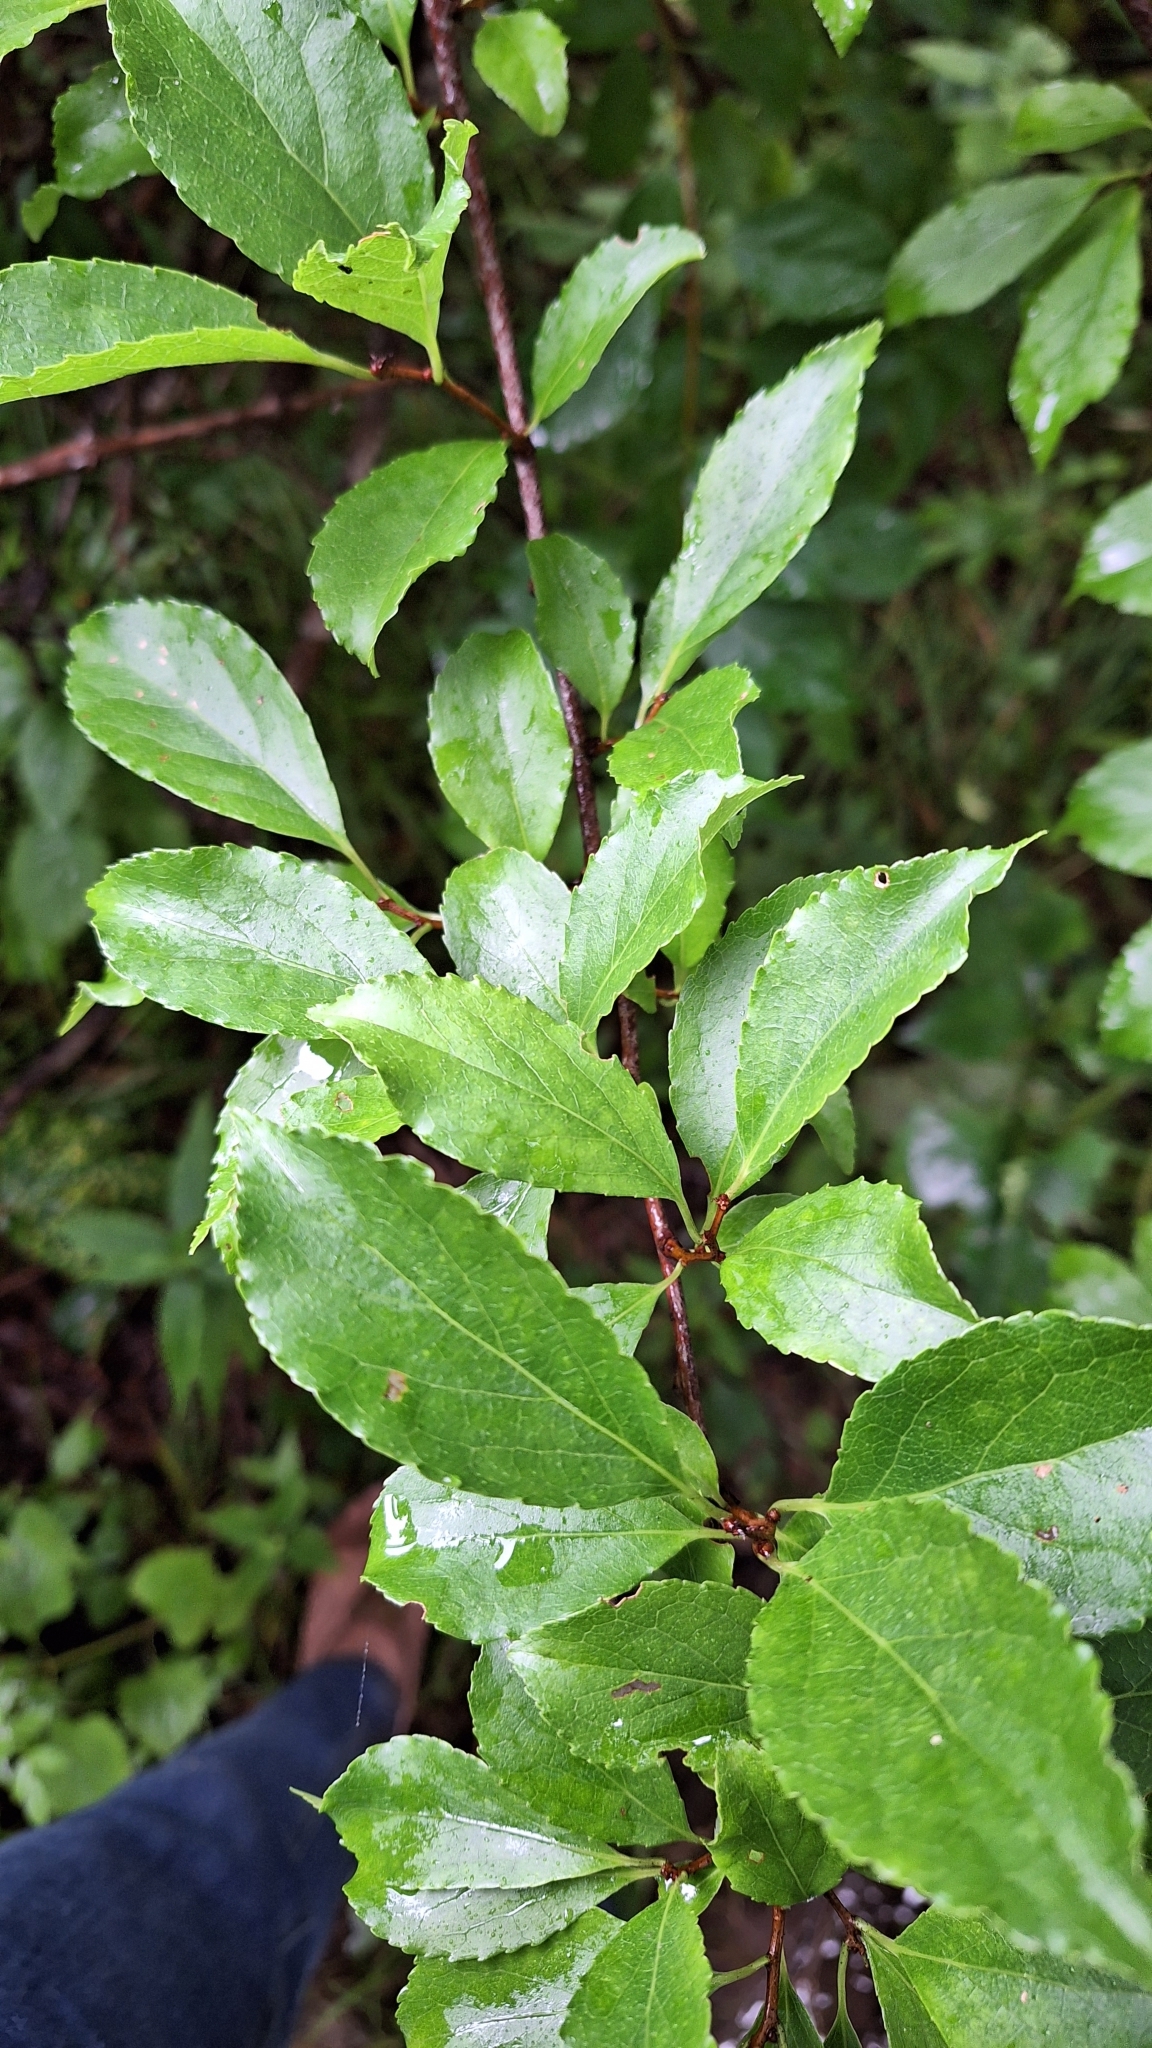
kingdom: Plantae
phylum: Tracheophyta
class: Magnoliopsida
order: Celastrales
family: Celastraceae
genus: Celastrus
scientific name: Celastrus orbiculatus
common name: Oriental bittersweet
